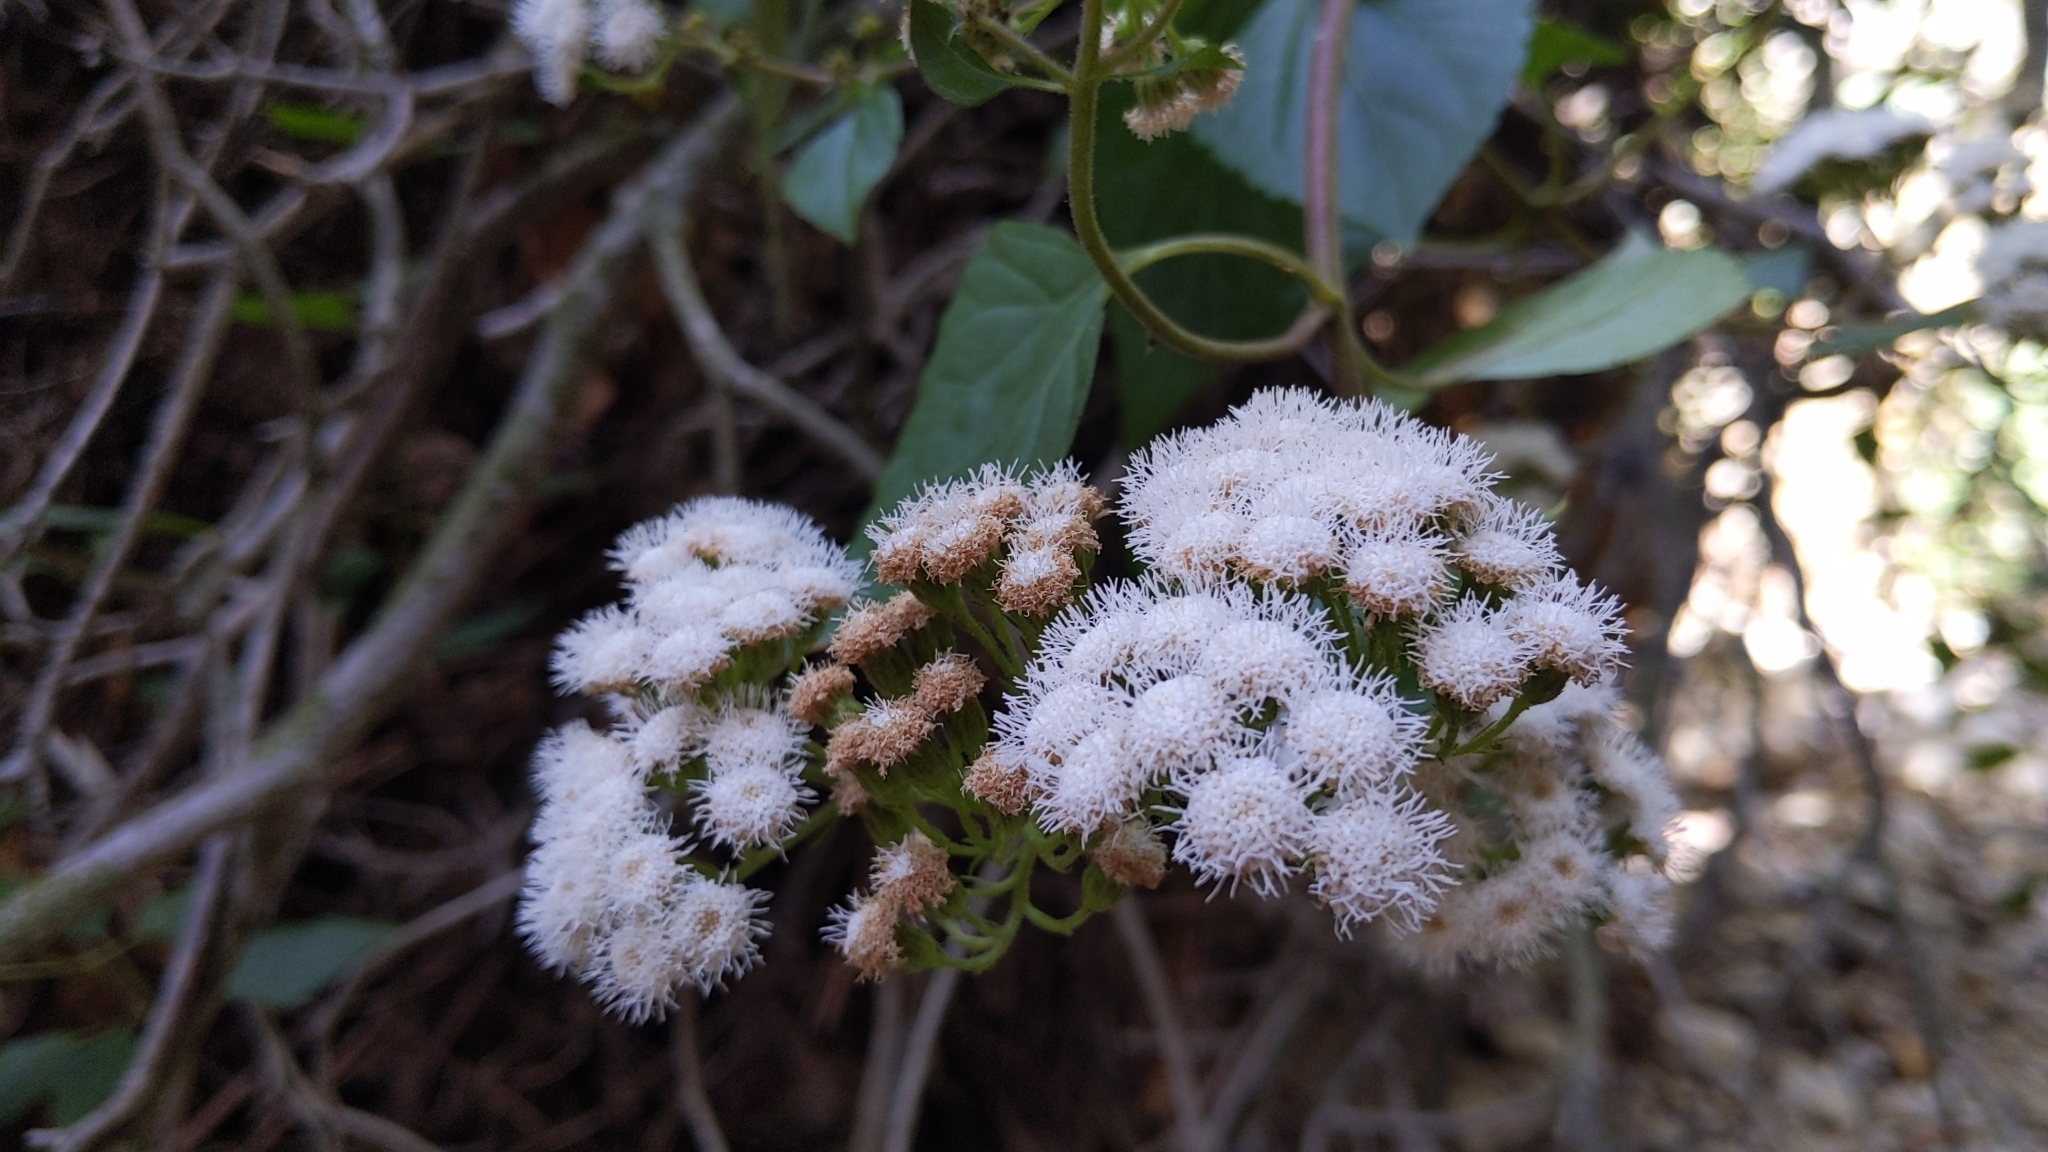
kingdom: Plantae
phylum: Tracheophyta
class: Magnoliopsida
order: Asterales
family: Asteraceae
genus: Ageratina
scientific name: Ageratina adenophora
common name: Sticky snakeroot
